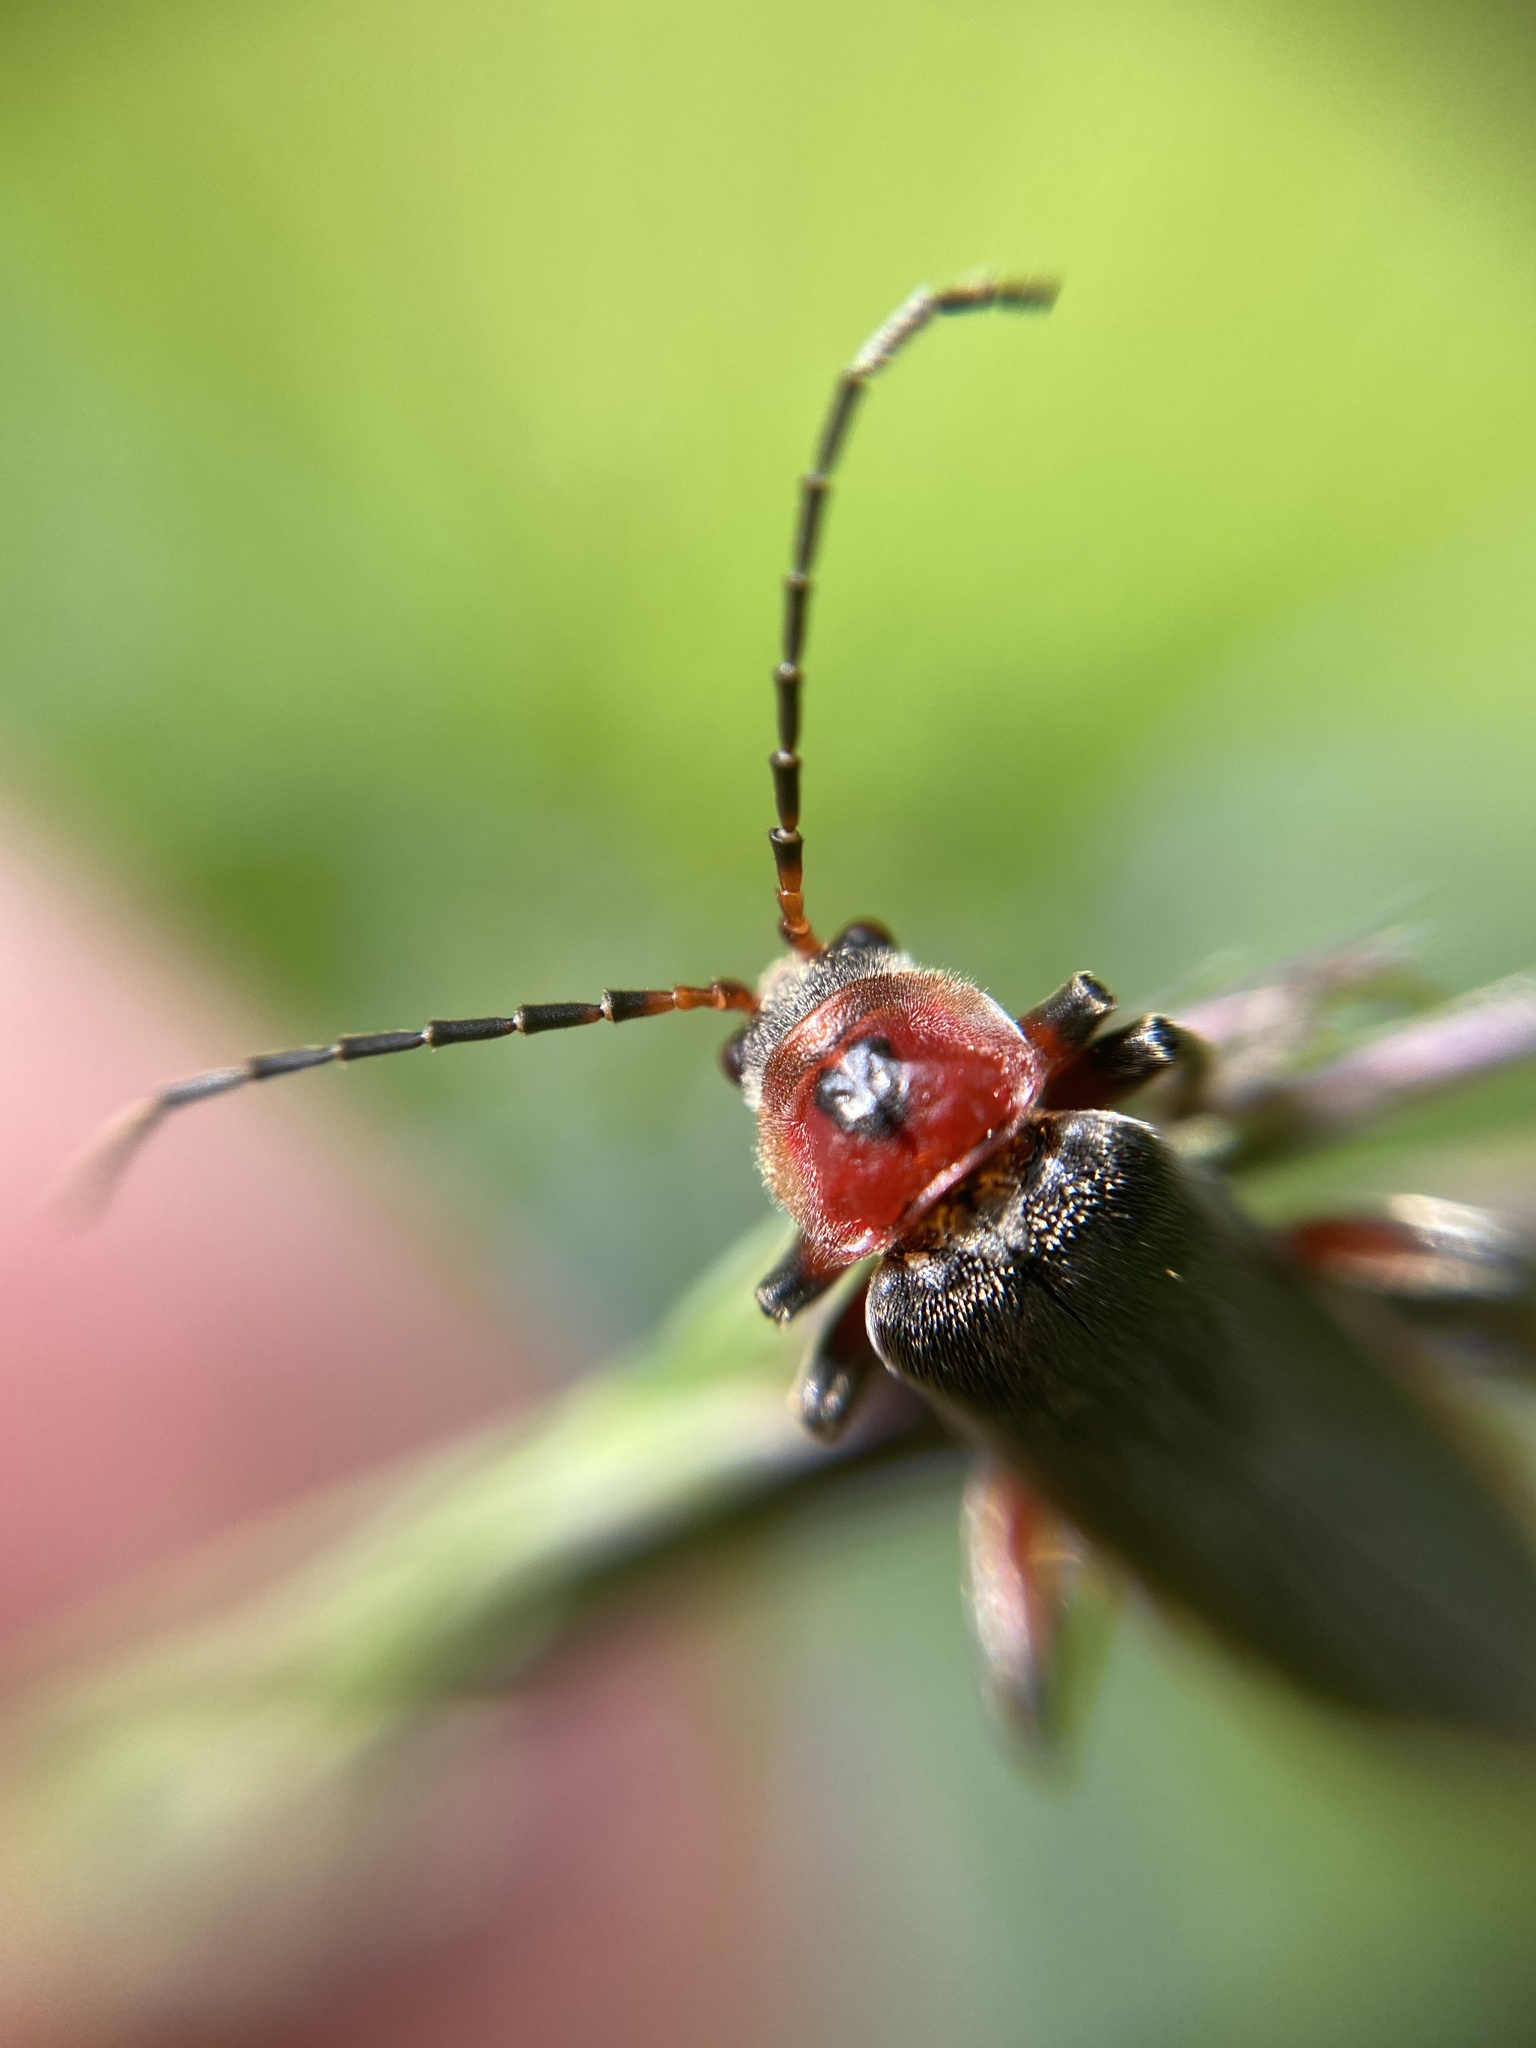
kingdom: Animalia
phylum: Arthropoda
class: Insecta
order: Coleoptera
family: Cantharidae
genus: Cantharis
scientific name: Cantharis rustica
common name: Soldier beetle
